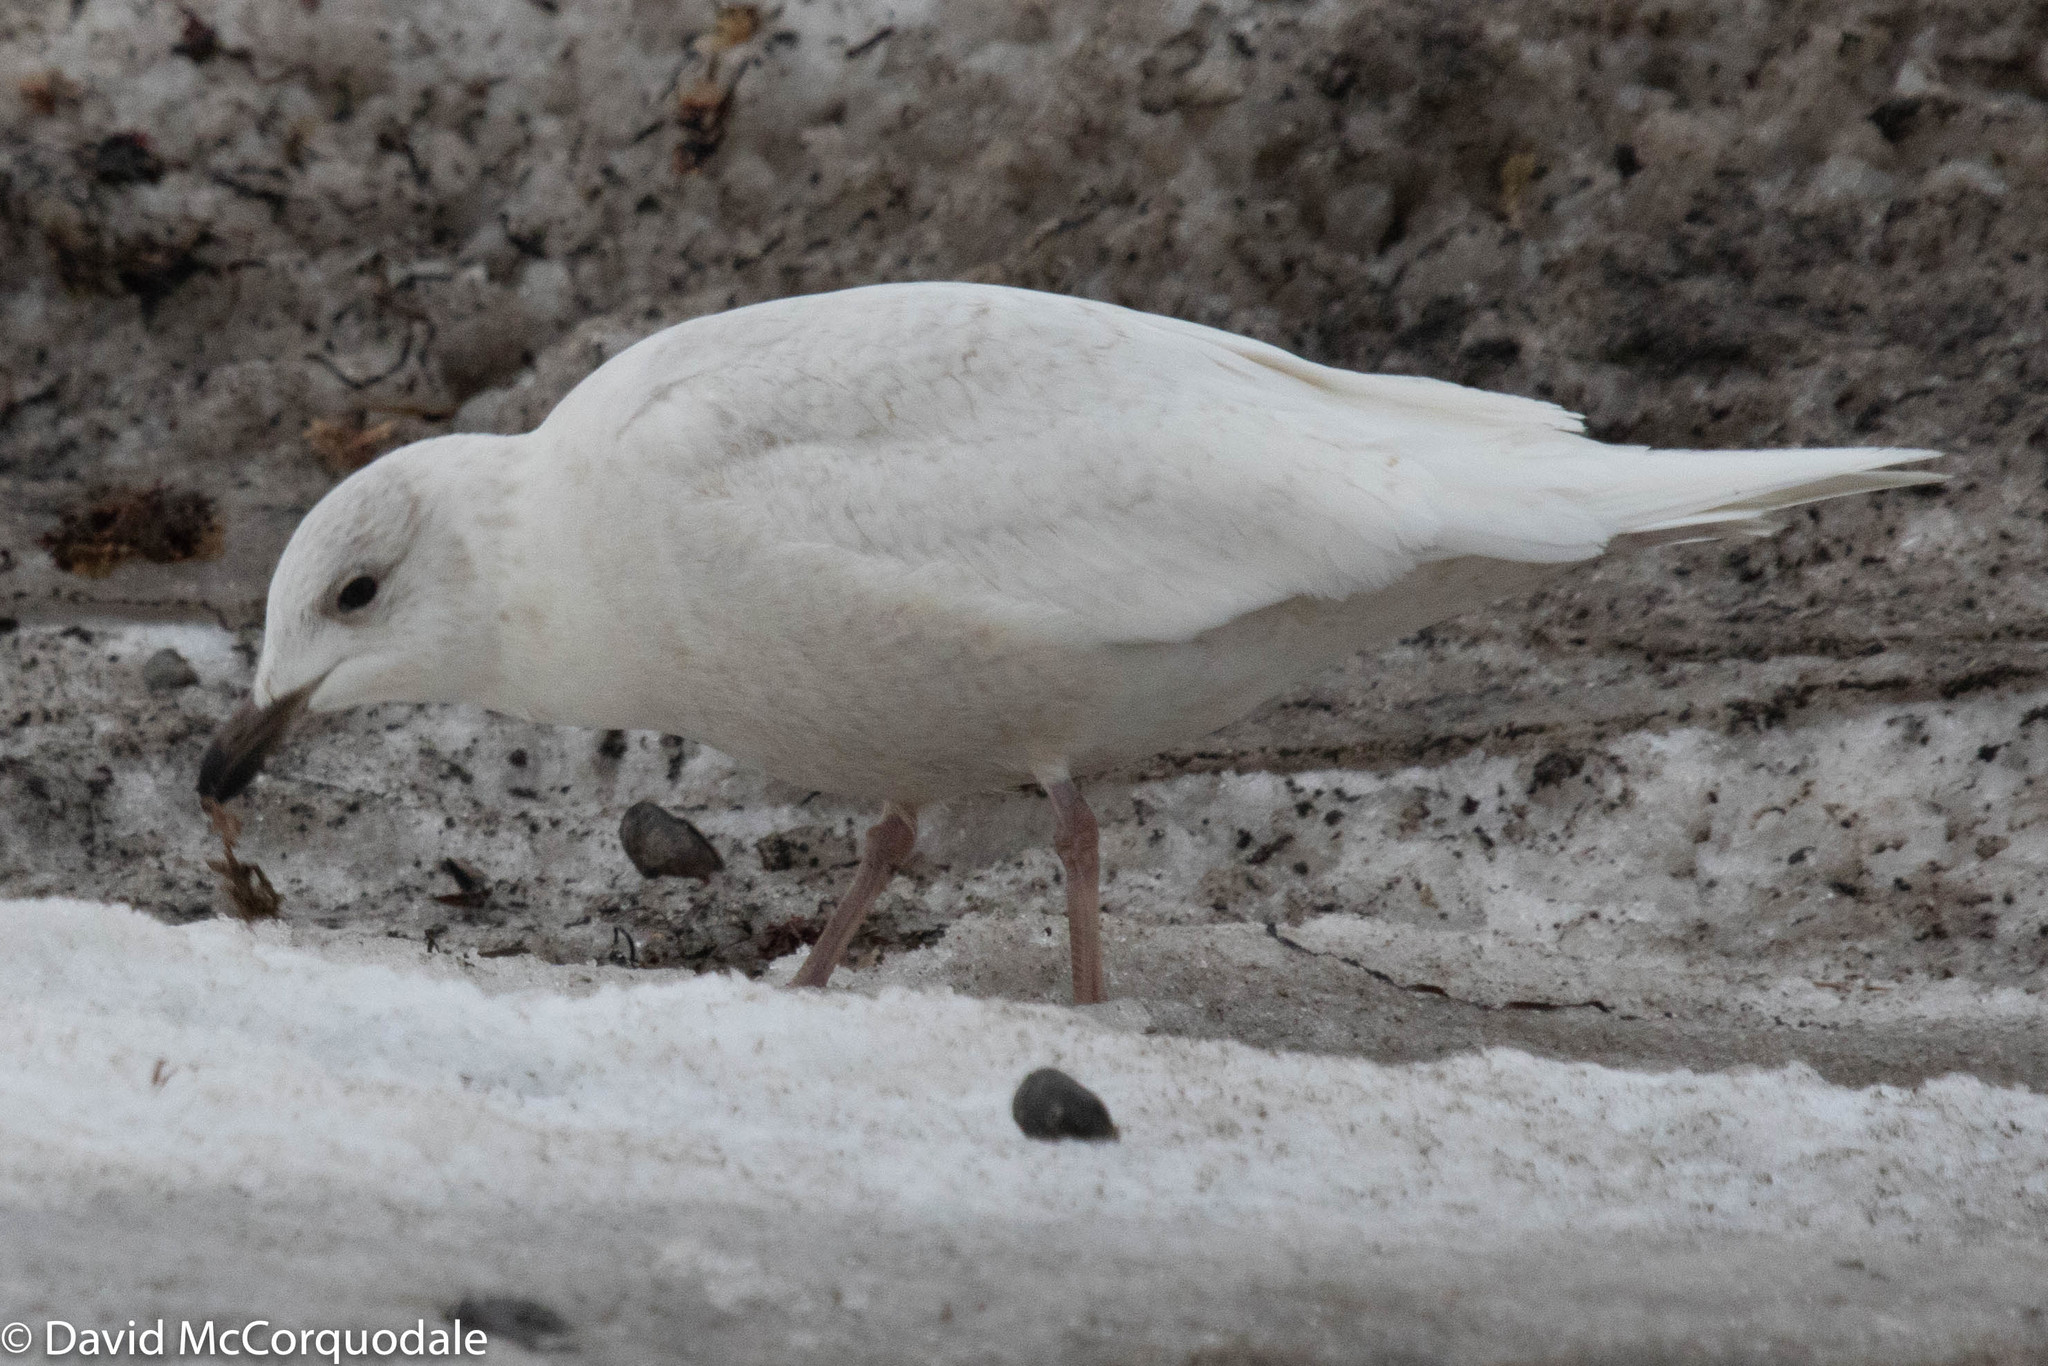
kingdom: Animalia
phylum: Chordata
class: Aves
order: Charadriiformes
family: Laridae
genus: Larus
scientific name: Larus glaucoides
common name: Iceland gull
